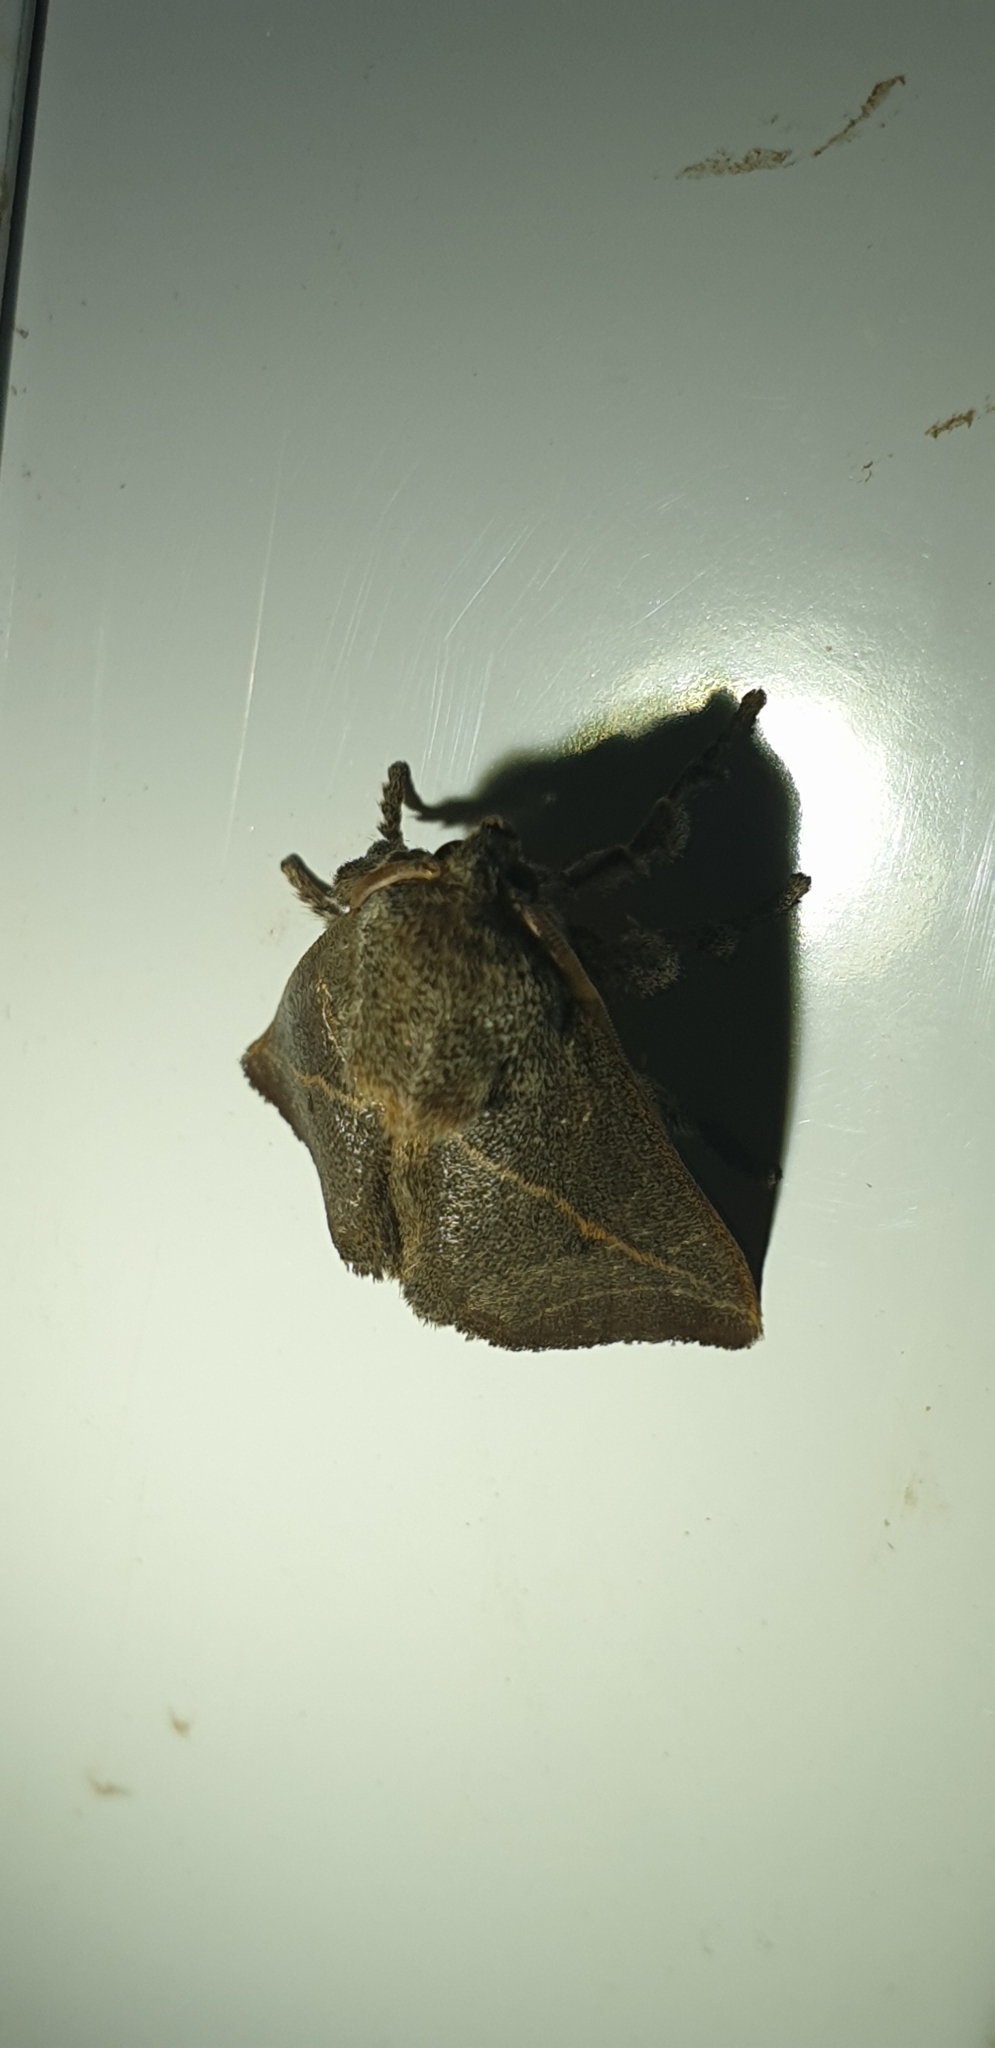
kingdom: Animalia
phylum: Arthropoda
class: Insecta
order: Lepidoptera
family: Limacodidae
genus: Anaxidia
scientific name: Anaxidia lozogramma
